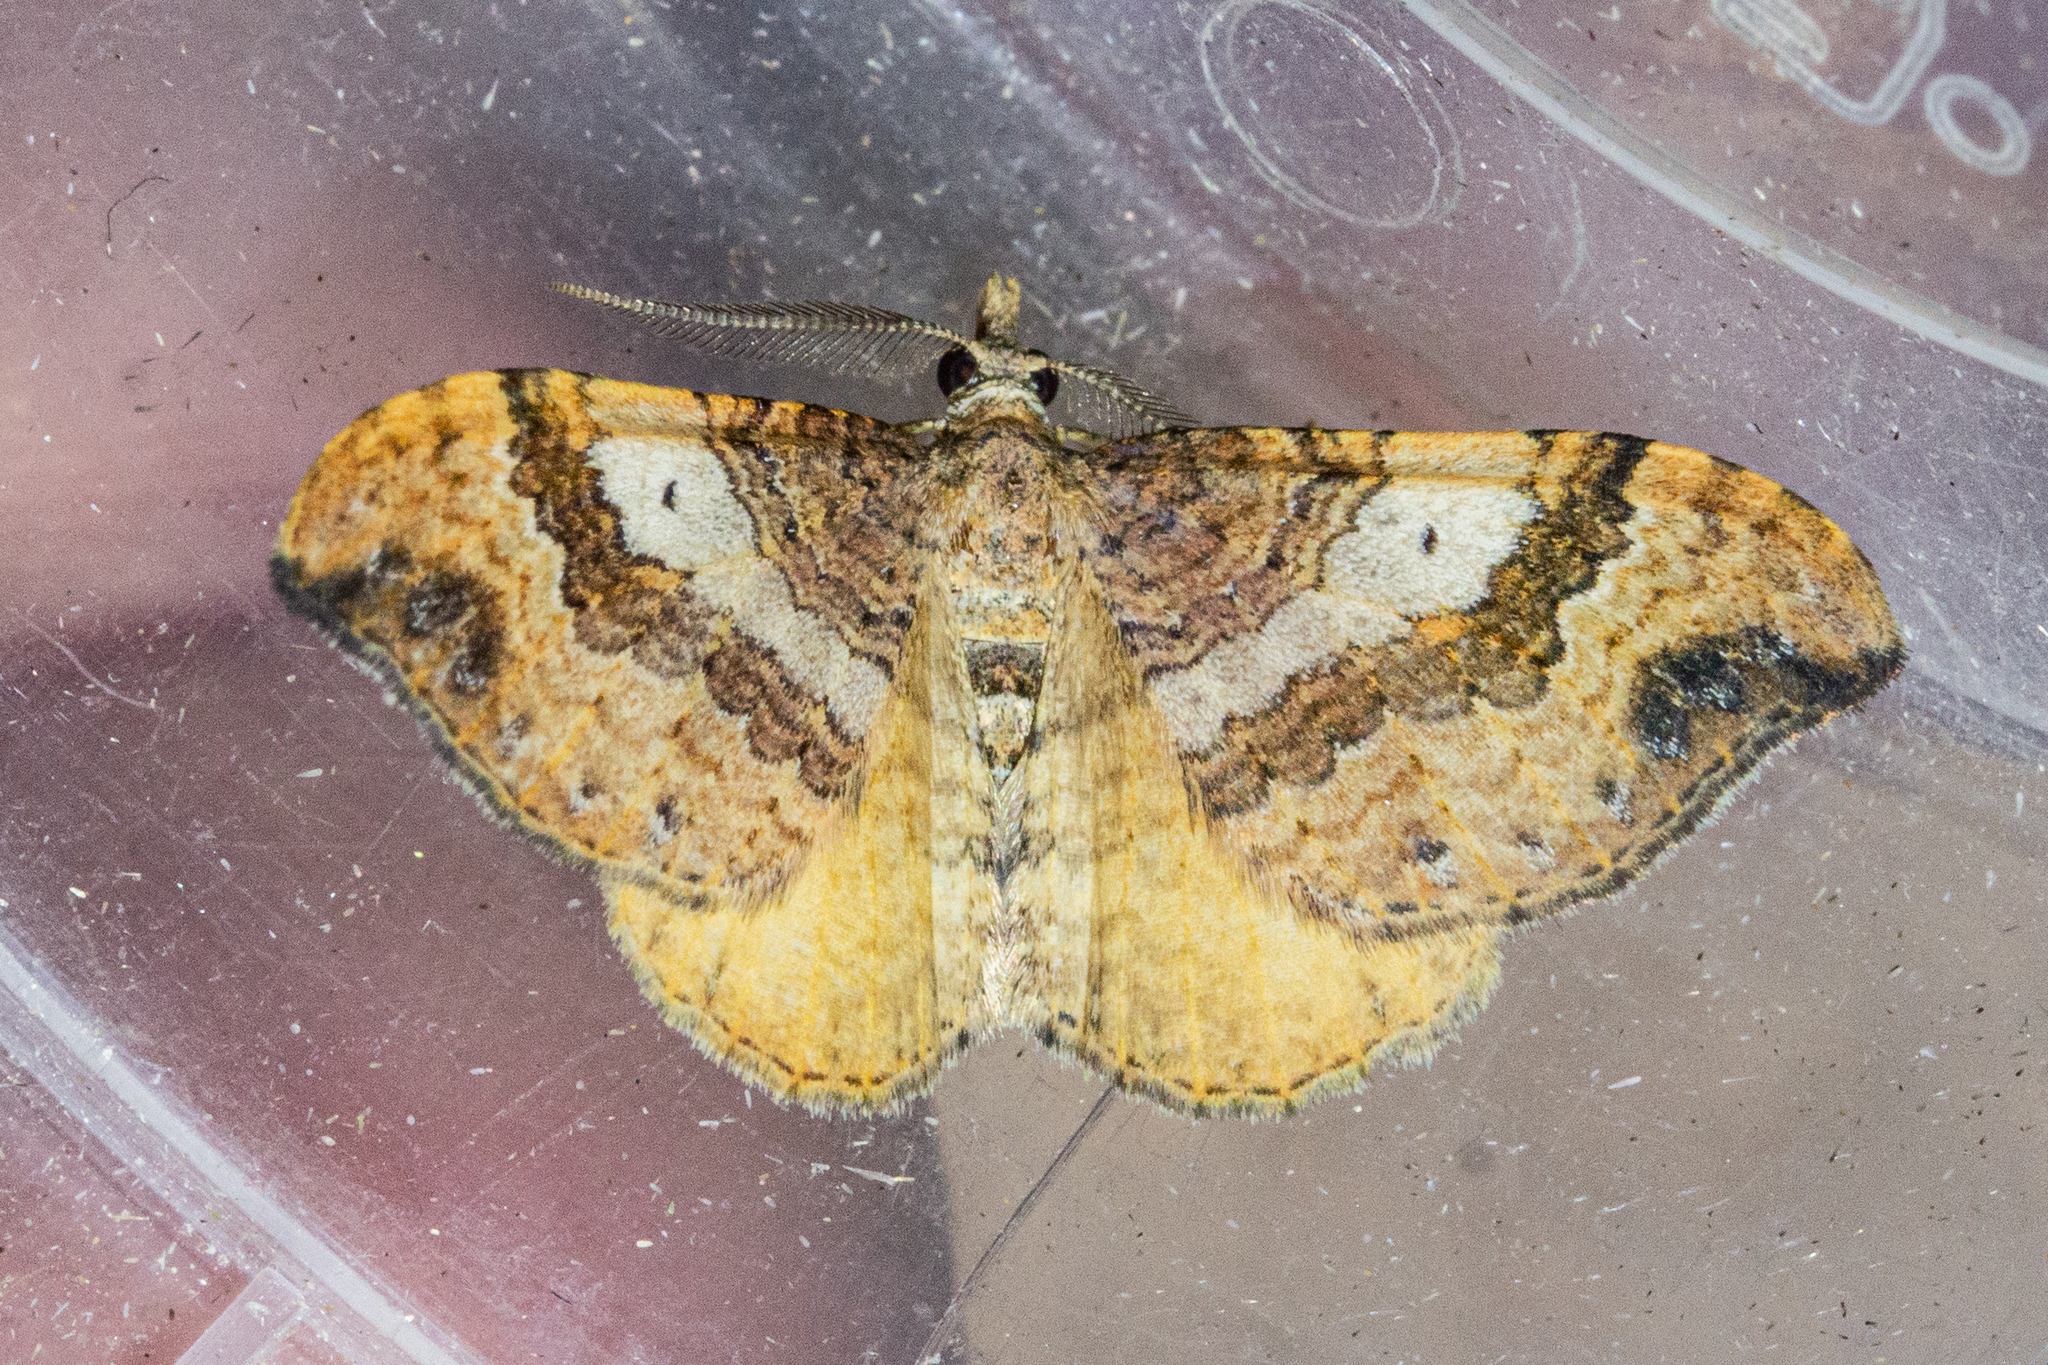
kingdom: Animalia
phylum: Arthropoda
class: Insecta
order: Lepidoptera
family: Geometridae
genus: Homodotis
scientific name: Homodotis megaspilata
